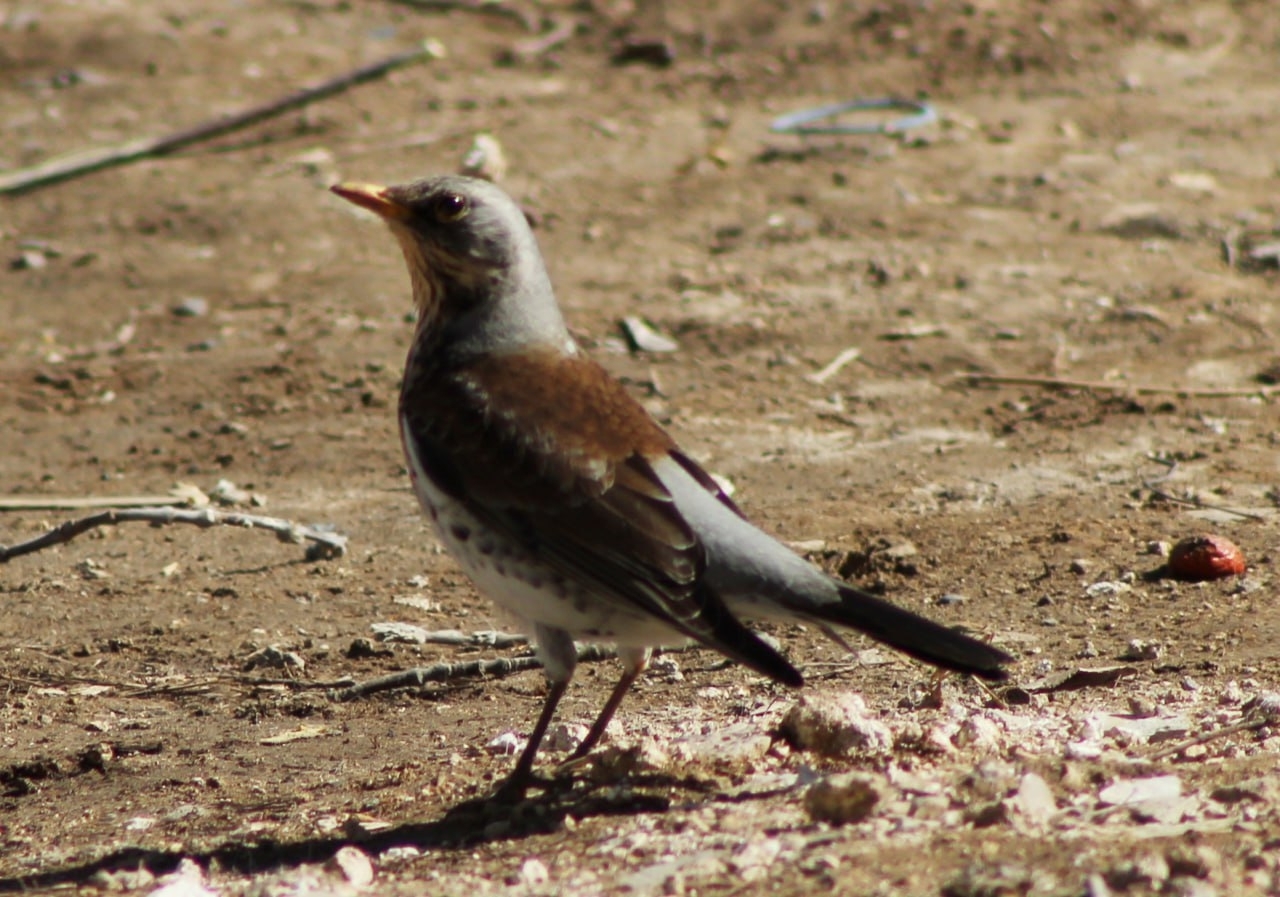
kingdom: Animalia
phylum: Chordata
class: Aves
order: Passeriformes
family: Turdidae
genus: Turdus
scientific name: Turdus pilaris
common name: Fieldfare
